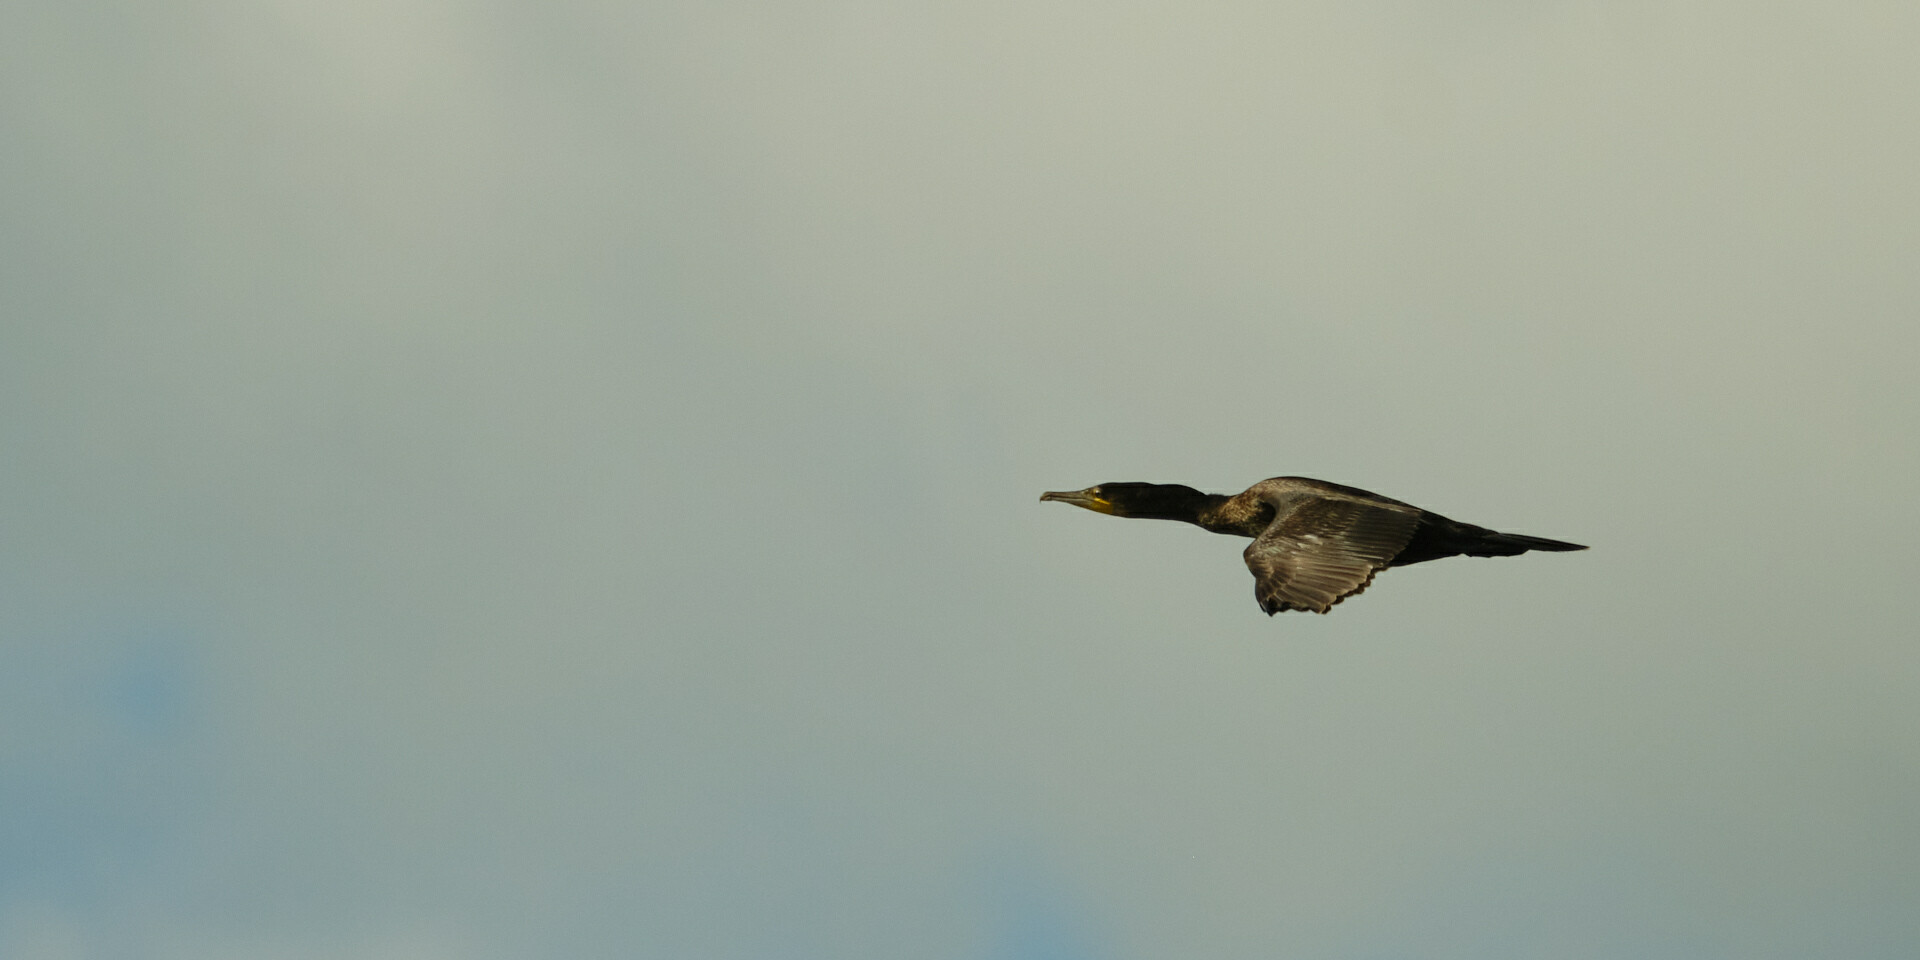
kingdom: Animalia
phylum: Chordata
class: Aves
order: Suliformes
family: Phalacrocoracidae
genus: Phalacrocorax
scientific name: Phalacrocorax carbo
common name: Great cormorant
